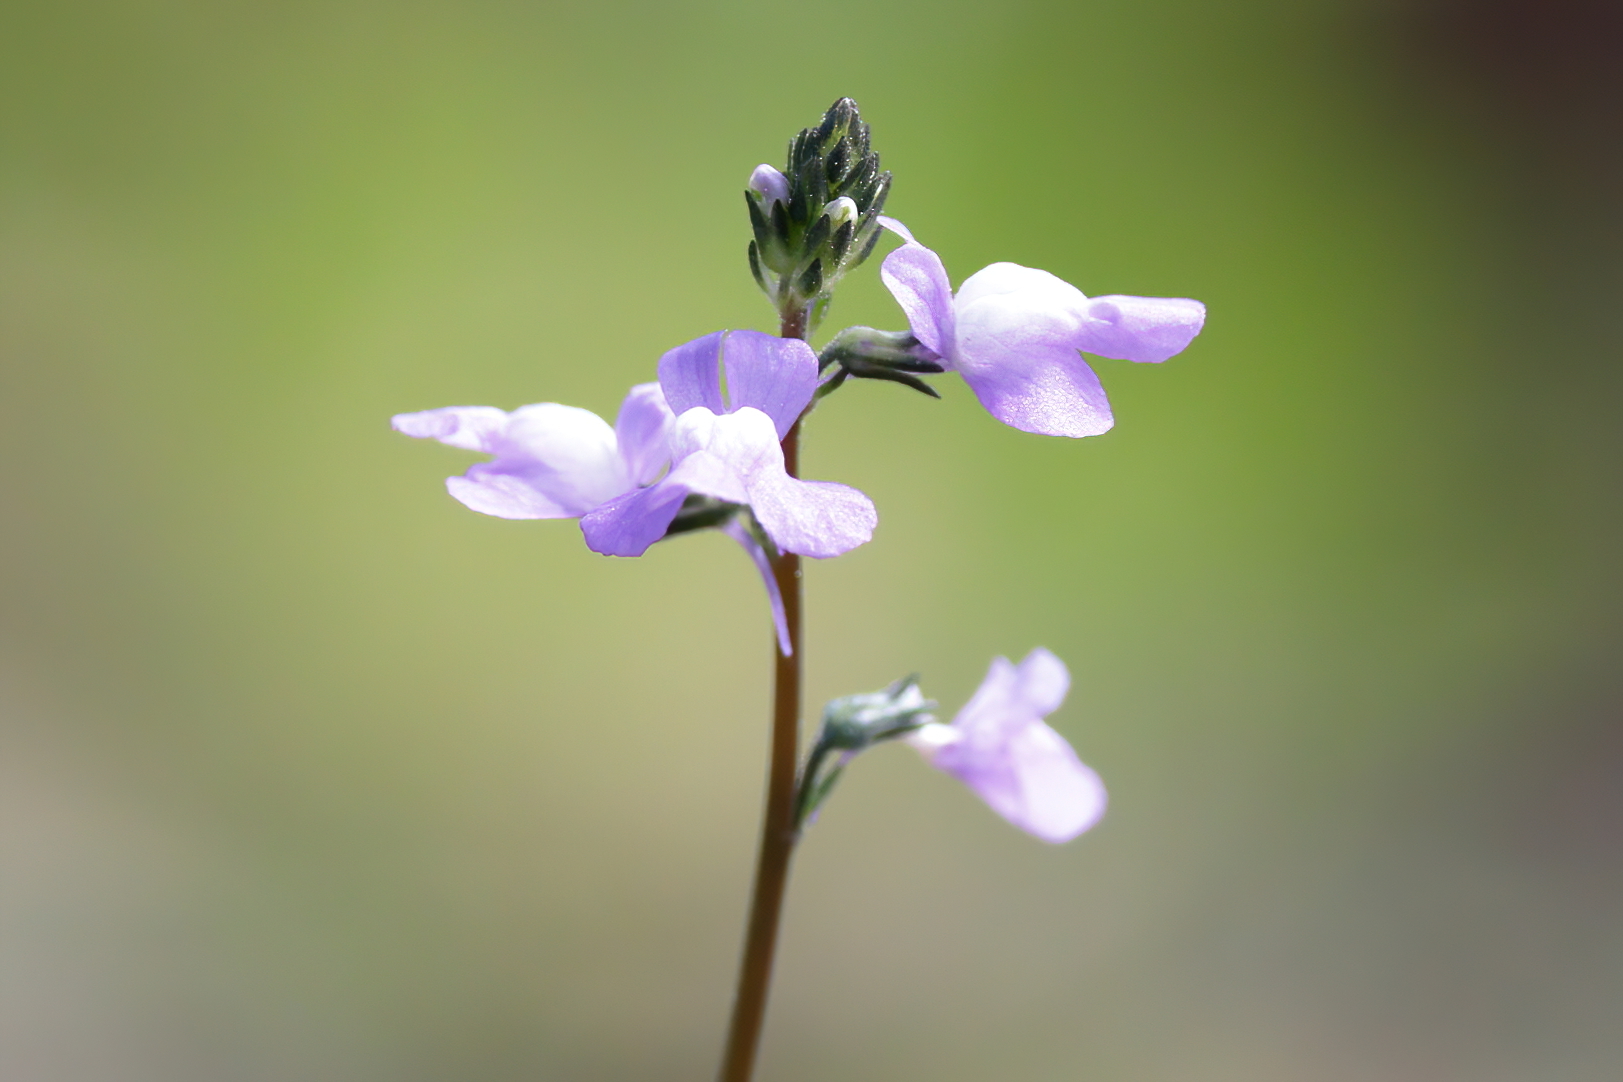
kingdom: Plantae
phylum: Tracheophyta
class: Magnoliopsida
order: Lamiales
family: Plantaginaceae
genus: Nuttallanthus
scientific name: Nuttallanthus canadensis
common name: Blue toadflax
